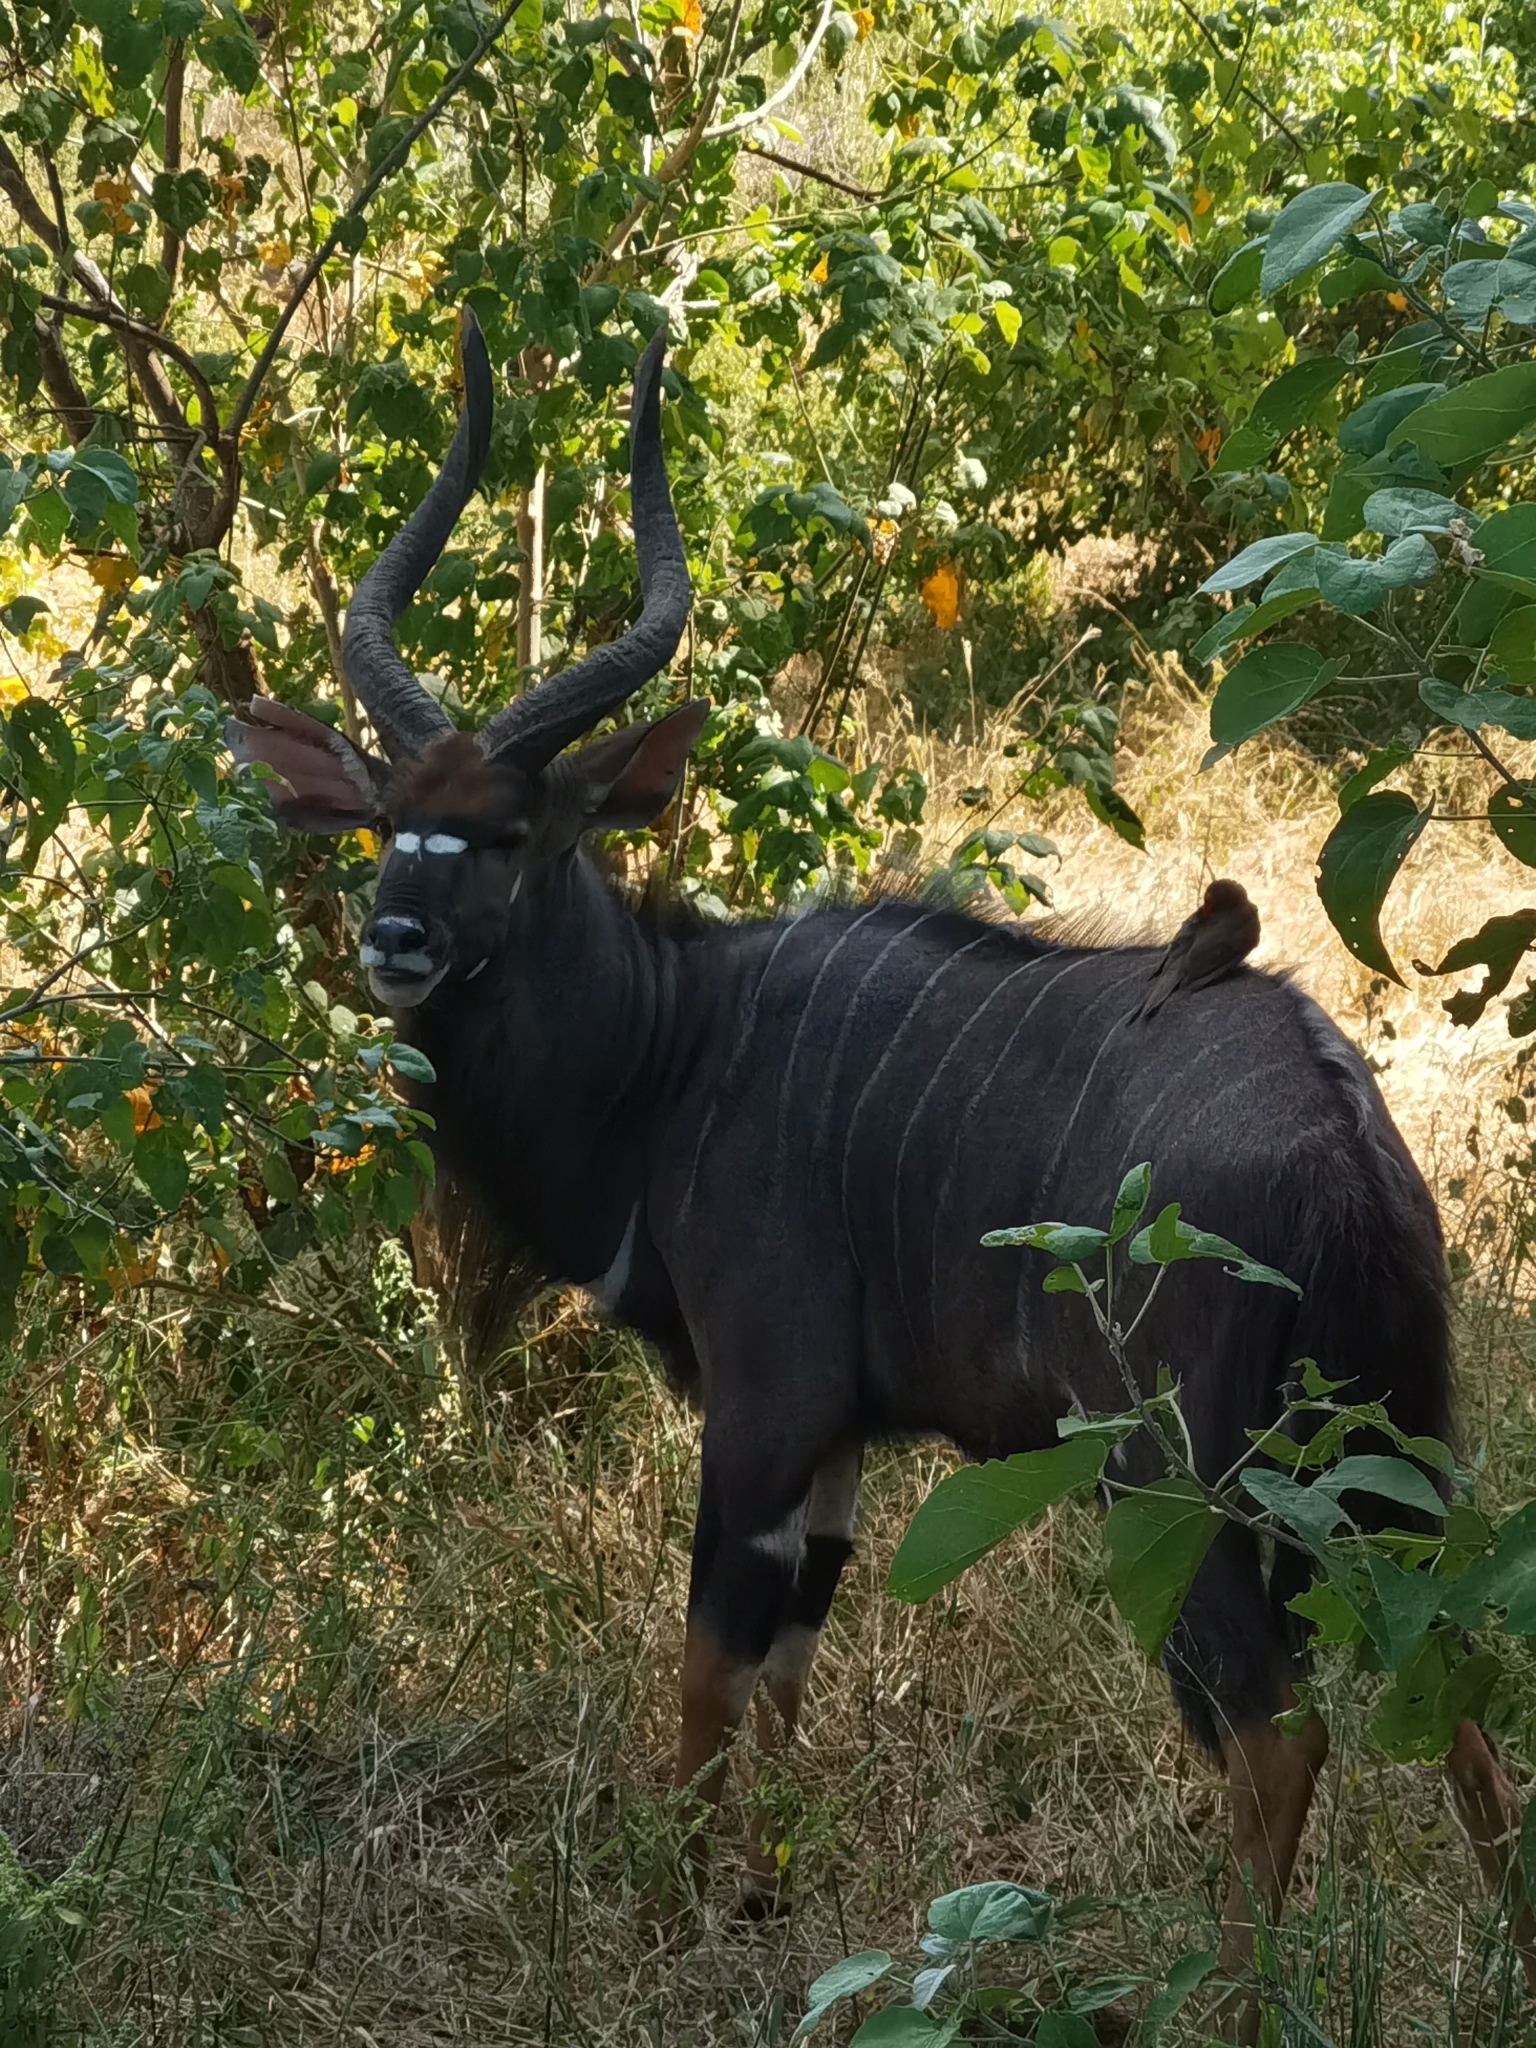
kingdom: Animalia
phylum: Chordata
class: Mammalia
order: Artiodactyla
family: Bovidae
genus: Tragelaphus
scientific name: Tragelaphus angasii
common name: Nyala
